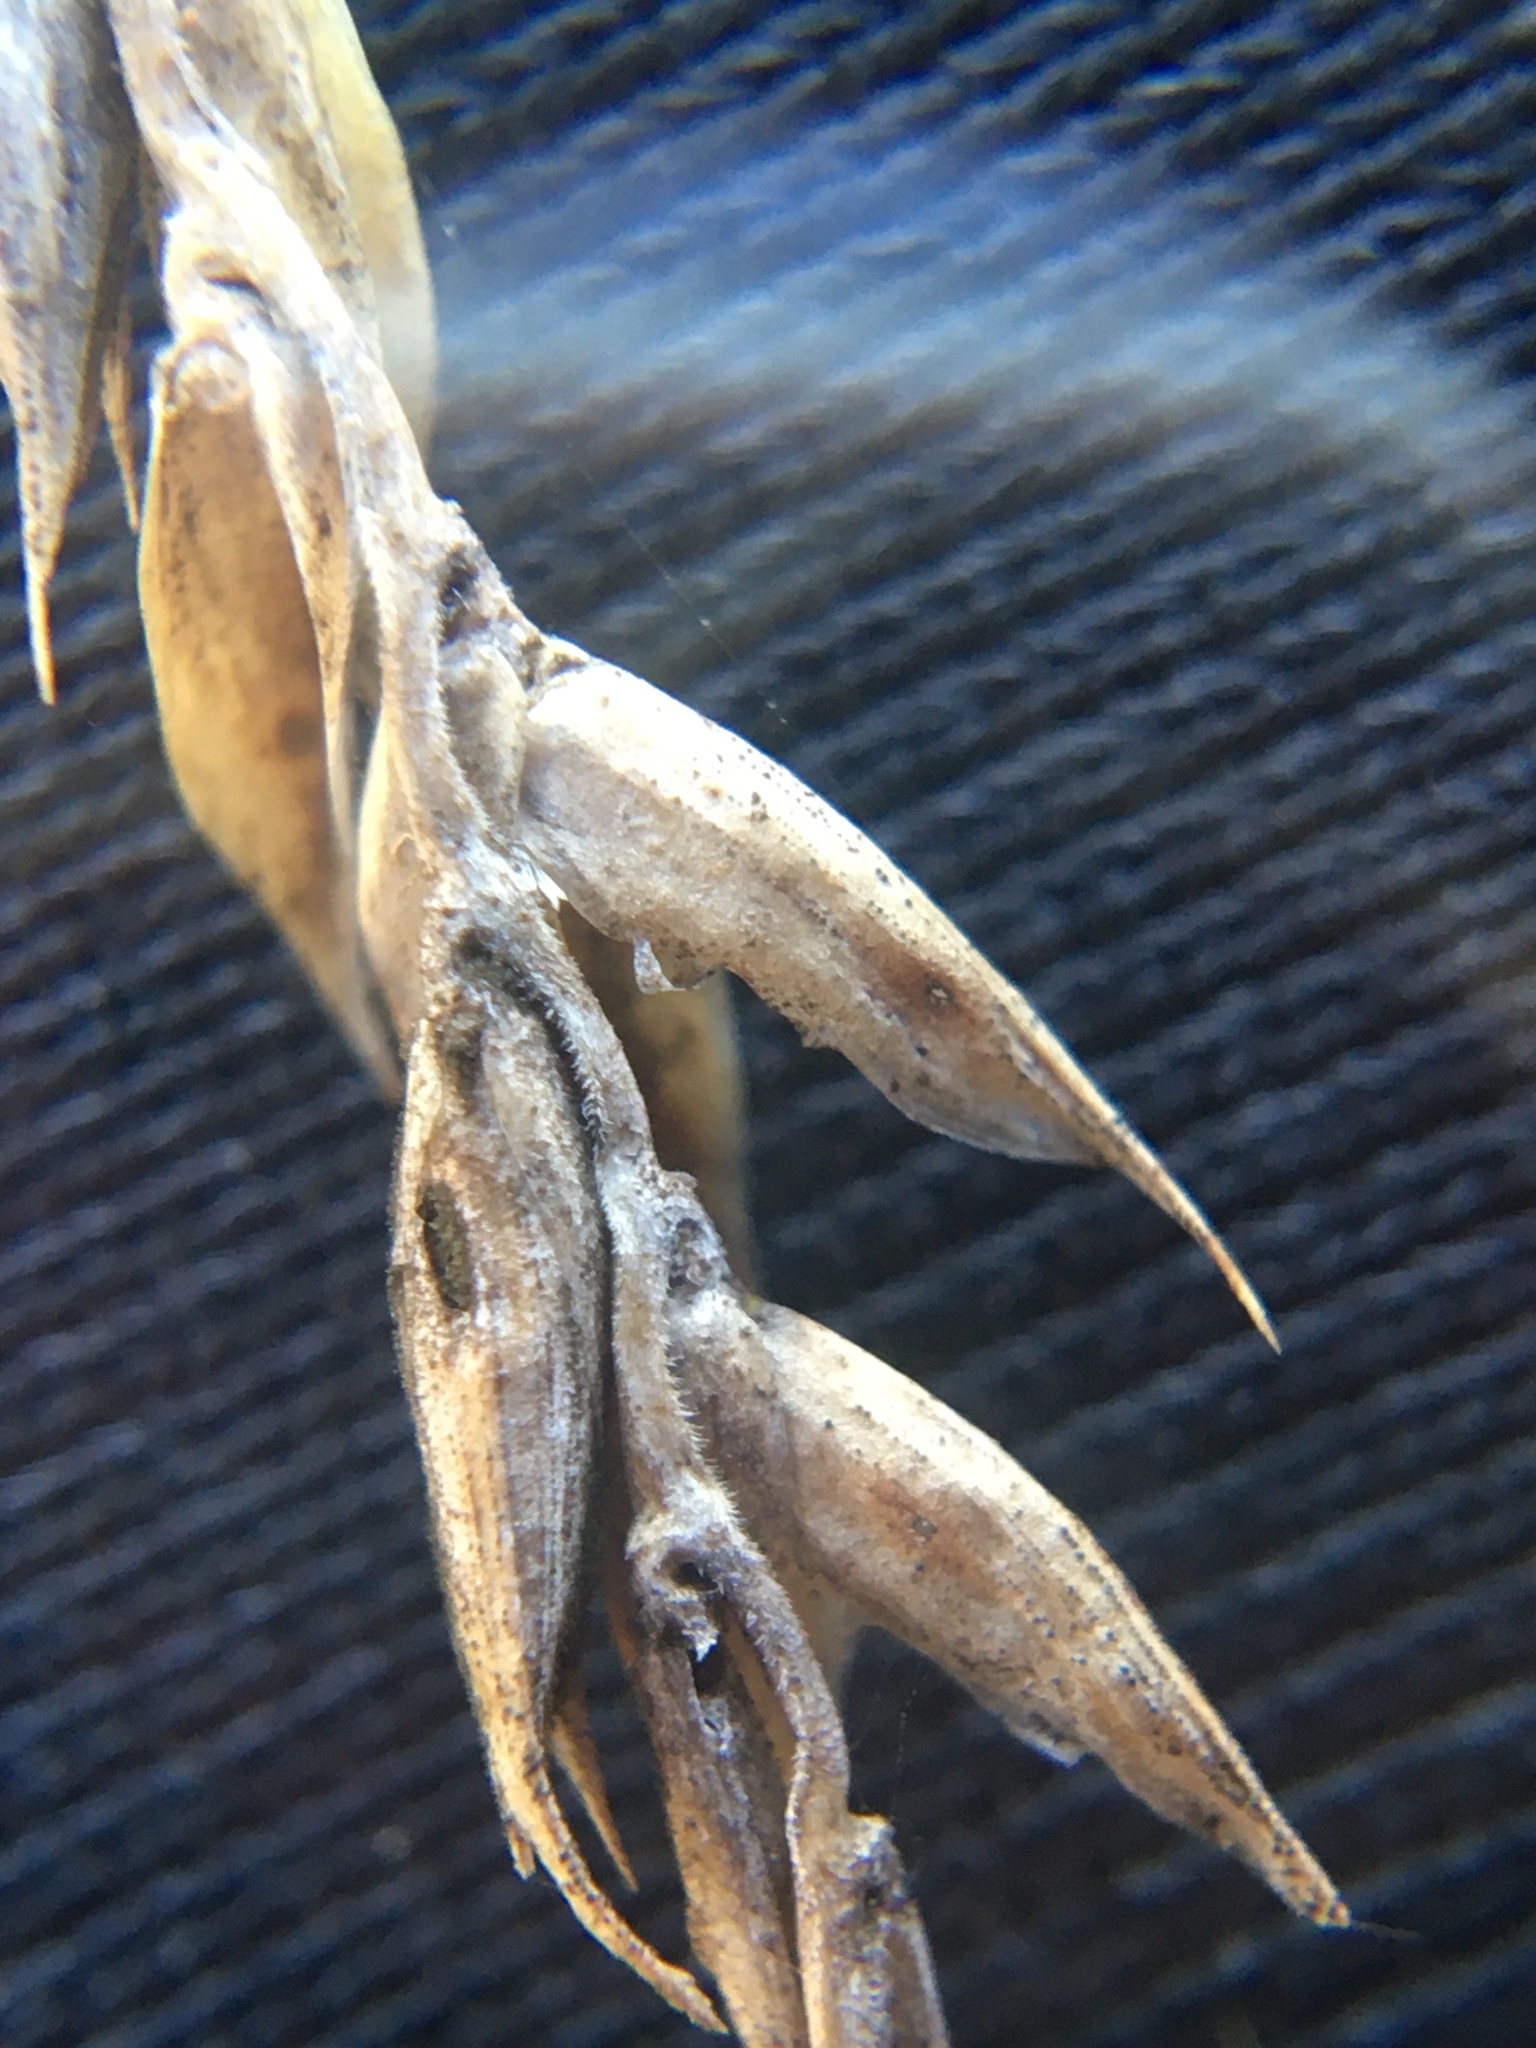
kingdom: Plantae
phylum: Tracheophyta
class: Liliopsida
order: Poales
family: Poaceae
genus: Tribolium
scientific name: Tribolium uniolae
